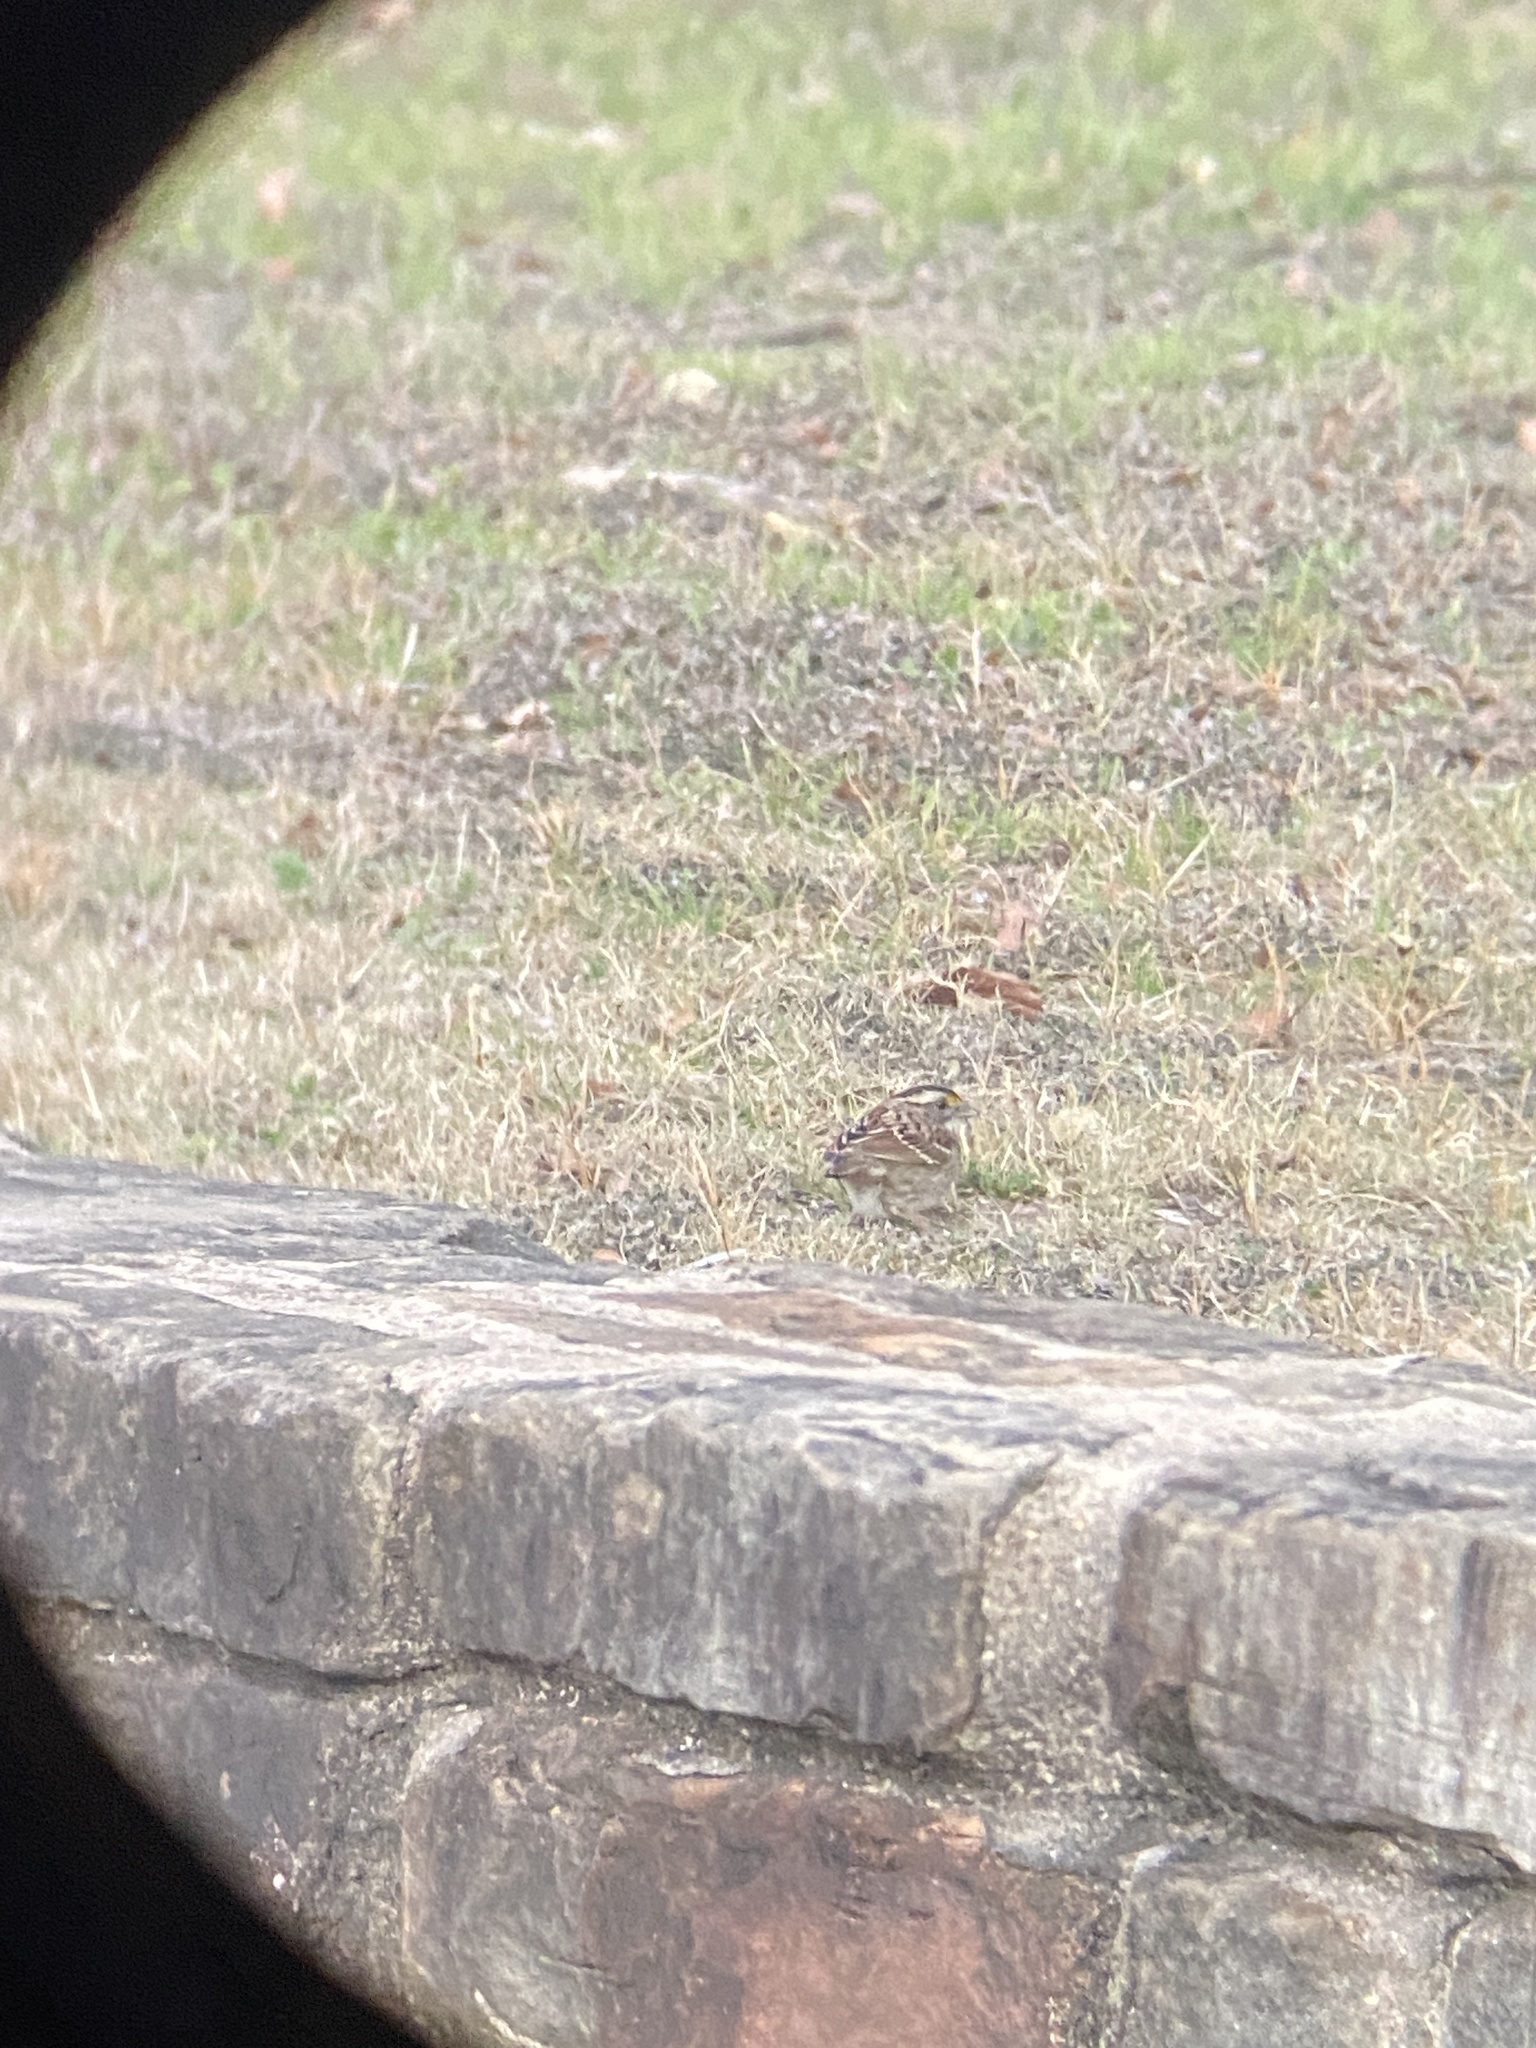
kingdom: Animalia
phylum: Chordata
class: Aves
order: Passeriformes
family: Passerellidae
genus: Zonotrichia
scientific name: Zonotrichia albicollis
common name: White-throated sparrow
